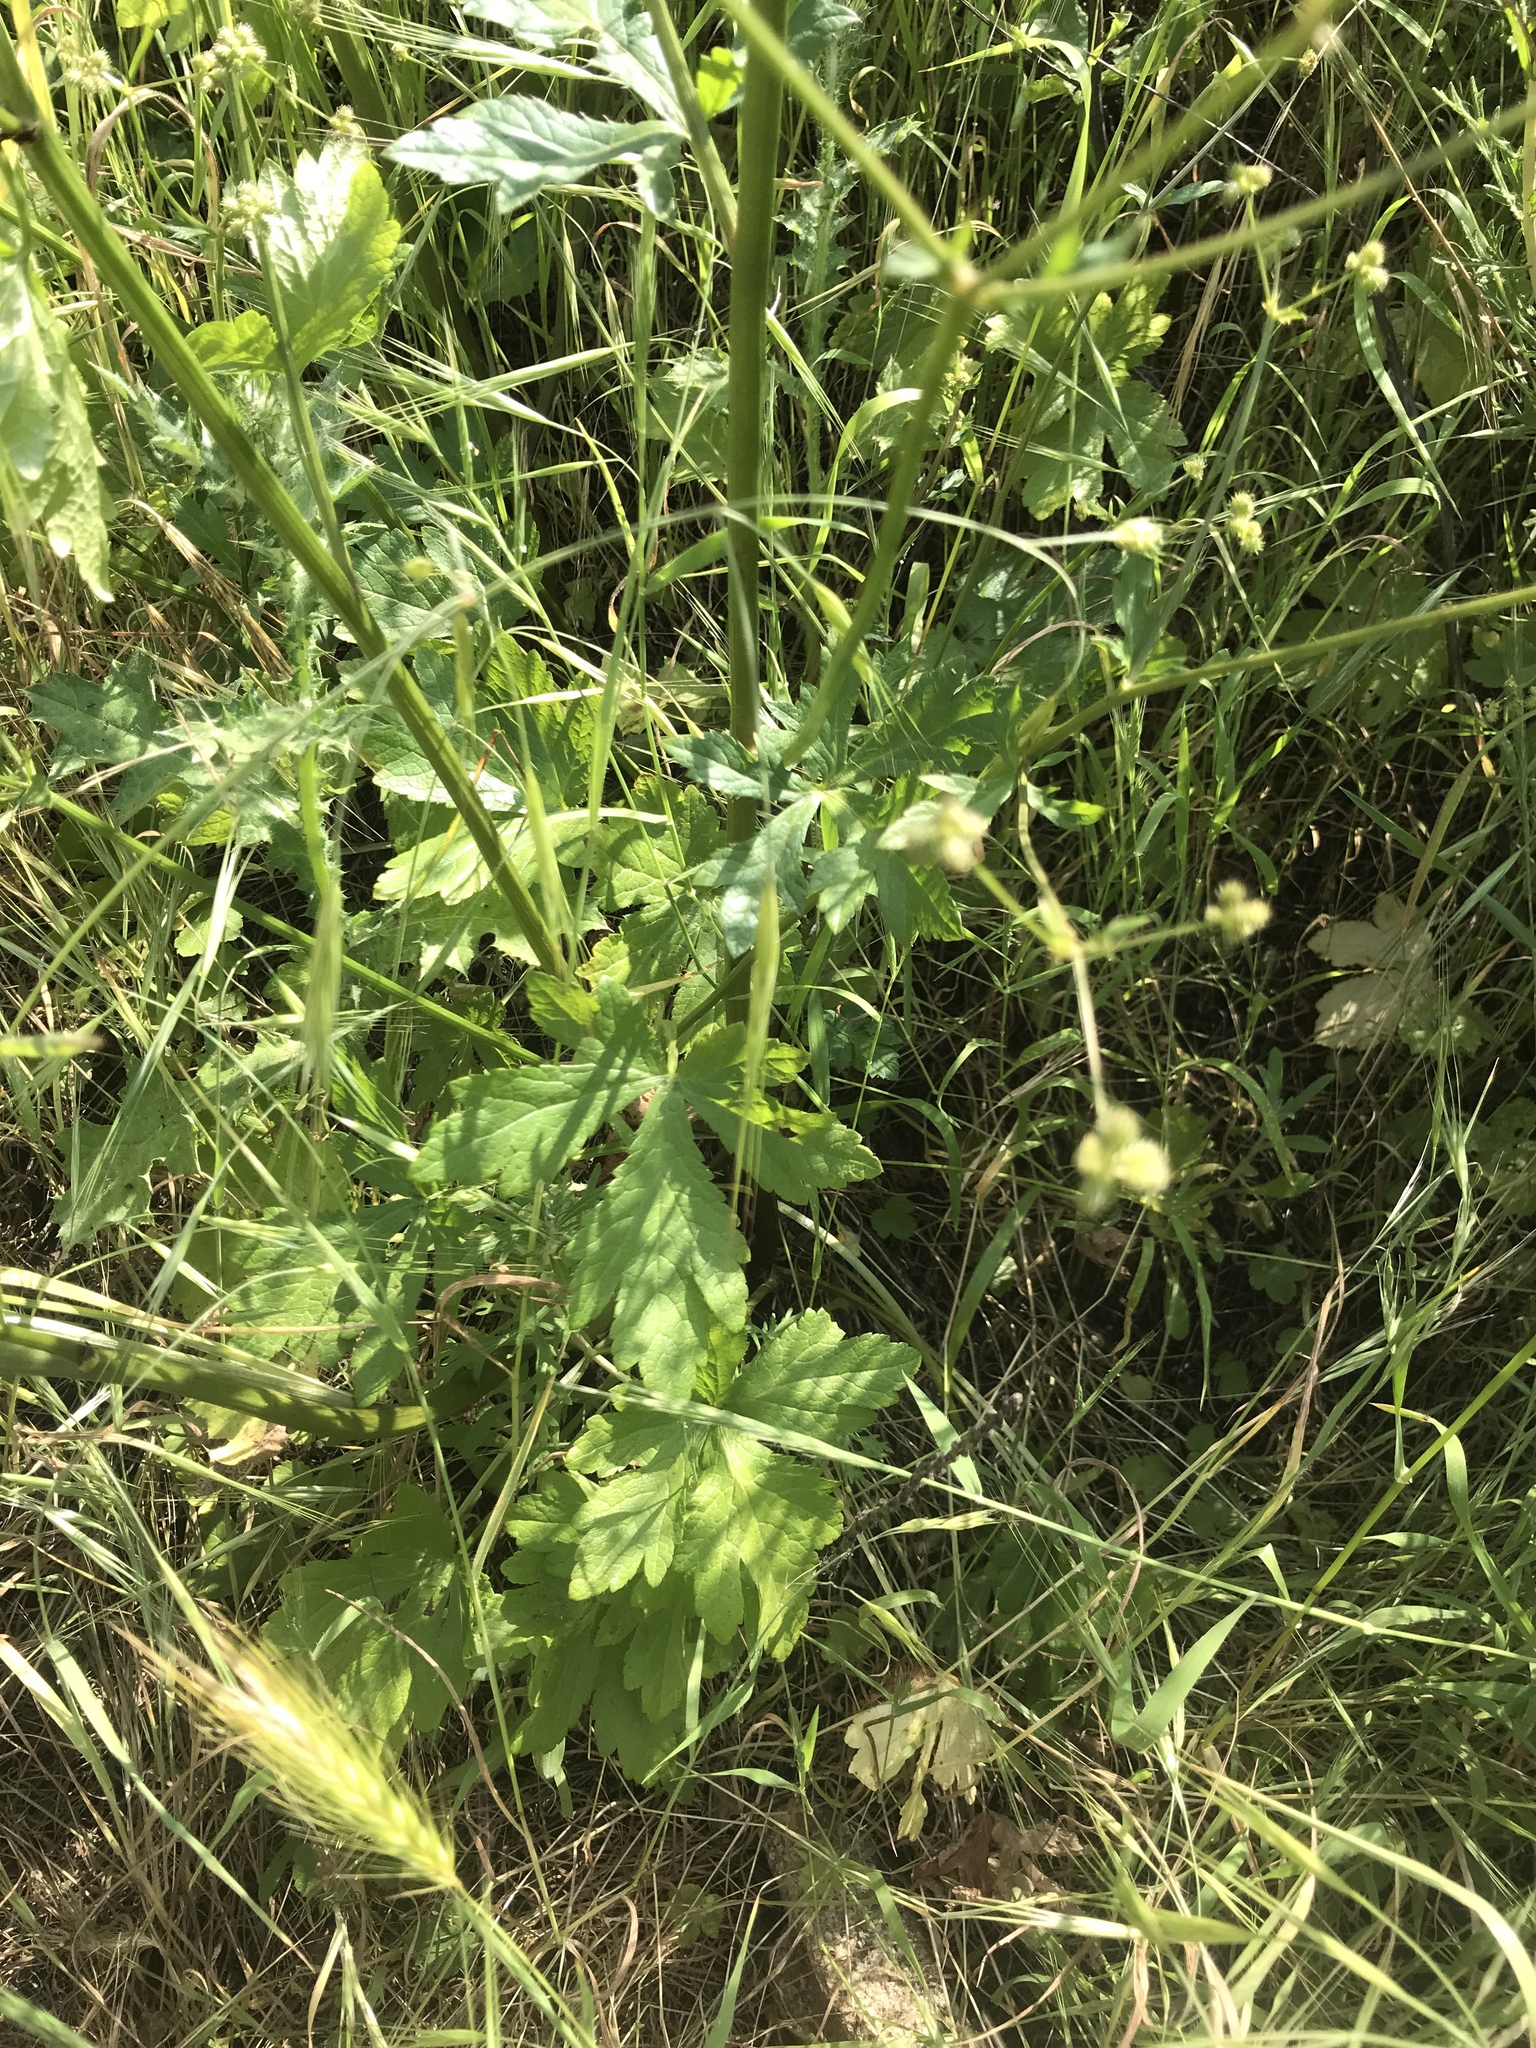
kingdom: Plantae
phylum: Tracheophyta
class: Magnoliopsida
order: Apiales
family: Apiaceae
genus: Sanicula
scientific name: Sanicula crassicaulis
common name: Western snakeroot
